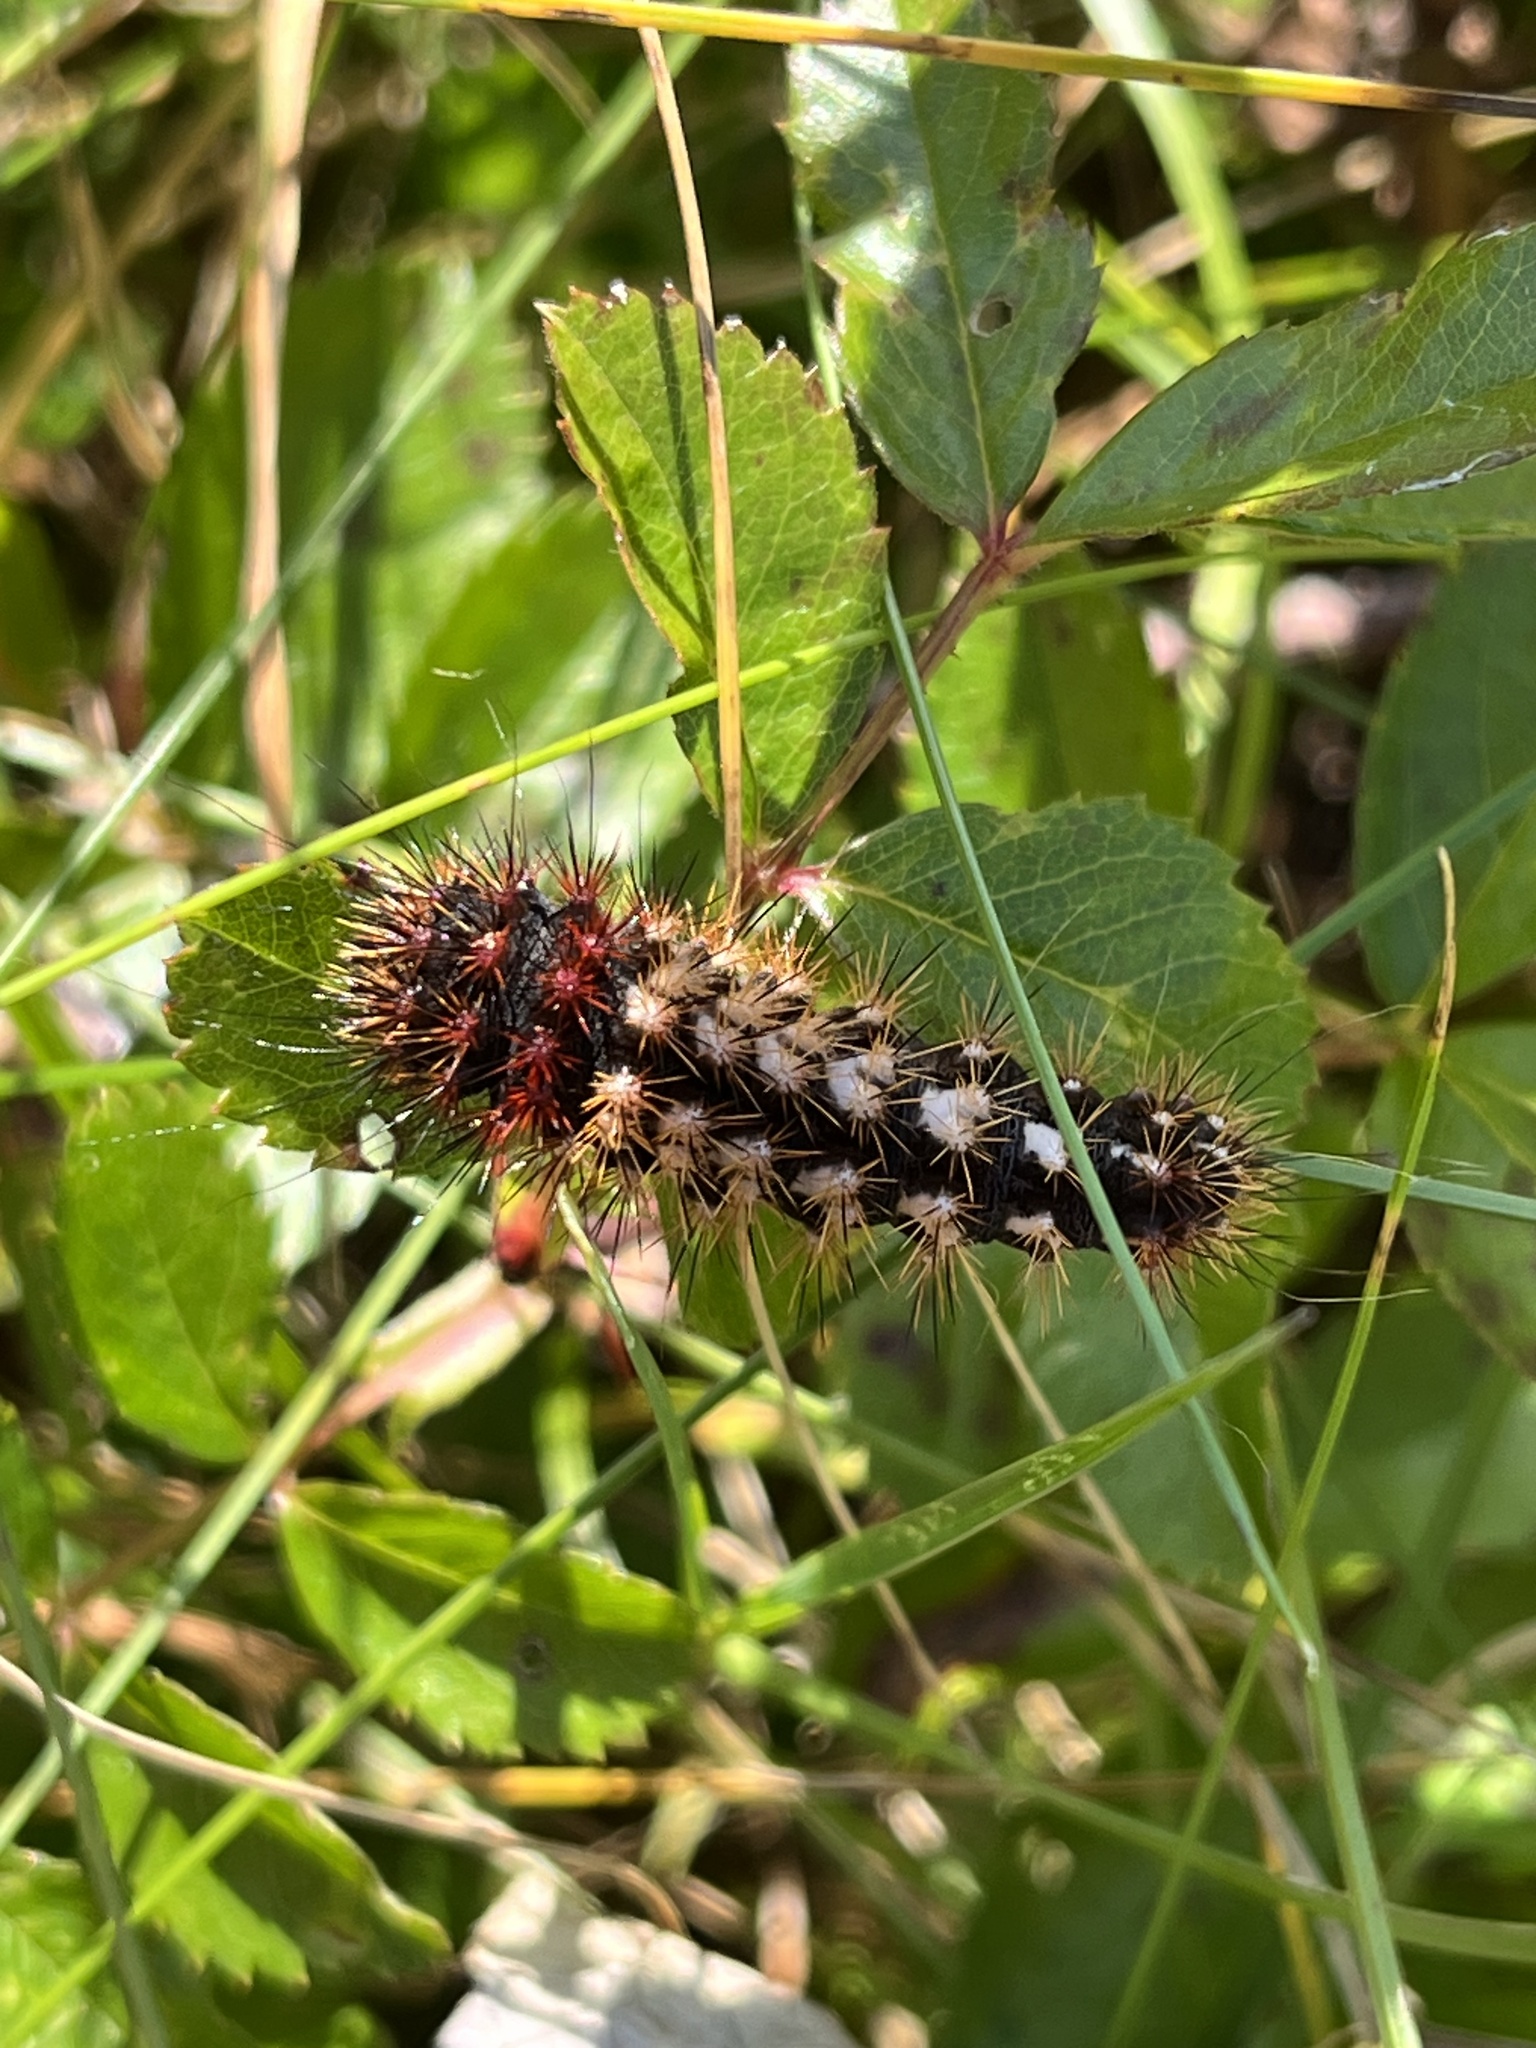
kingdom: Animalia
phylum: Arthropoda
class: Insecta
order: Lepidoptera
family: Noctuidae
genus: Acronicta
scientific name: Acronicta longa
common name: Long-winged dagger
